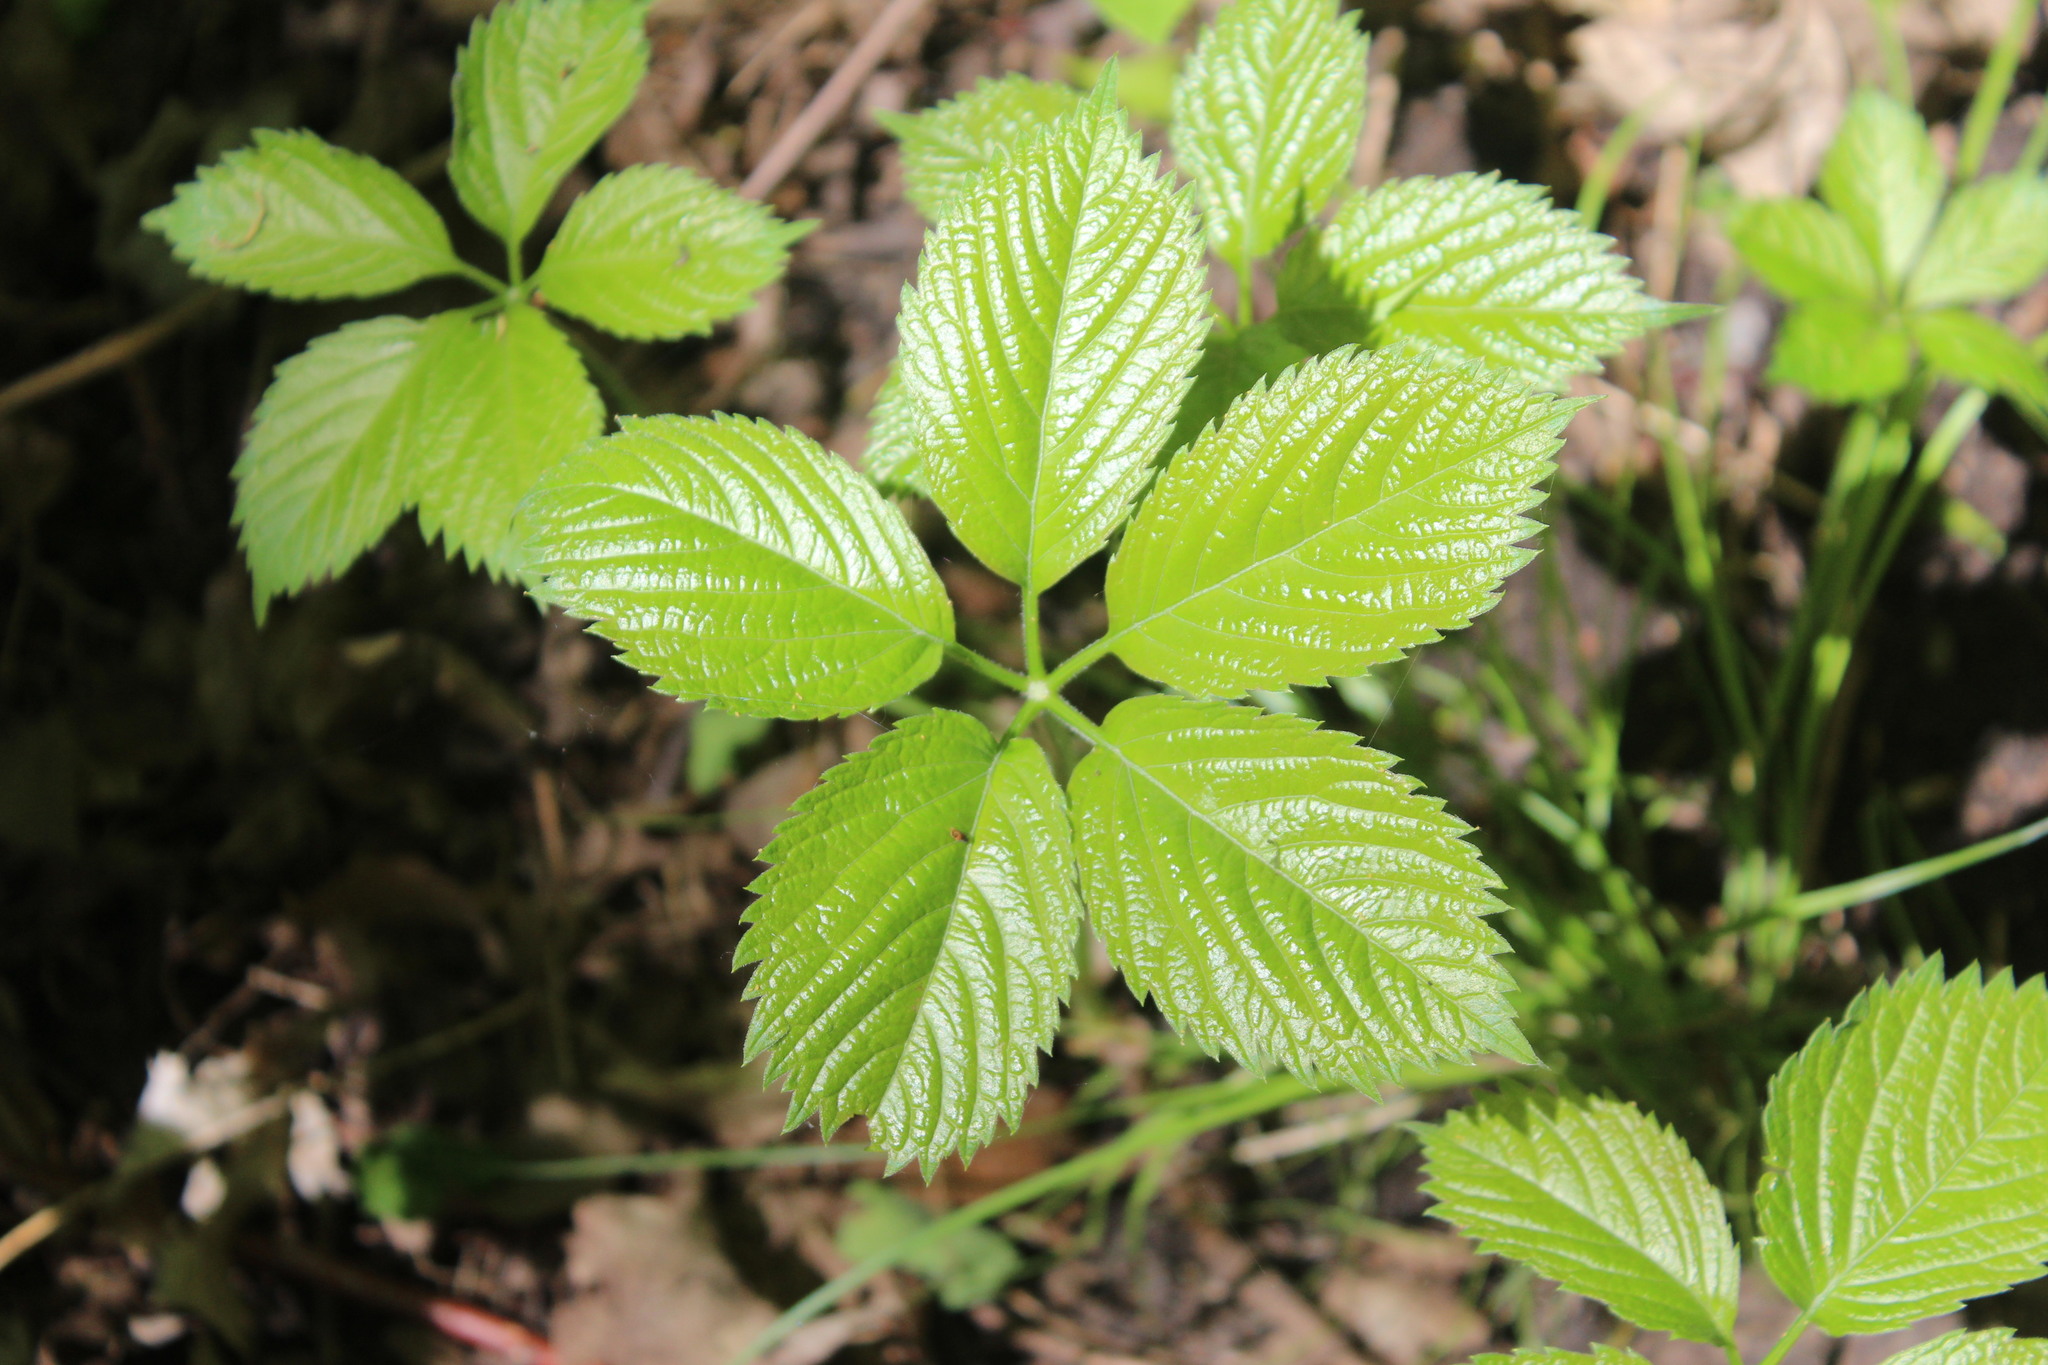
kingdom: Plantae
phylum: Tracheophyta
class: Magnoliopsida
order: Vitales
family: Vitaceae
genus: Parthenocissus
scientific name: Parthenocissus inserta
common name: False virginia-creeper
